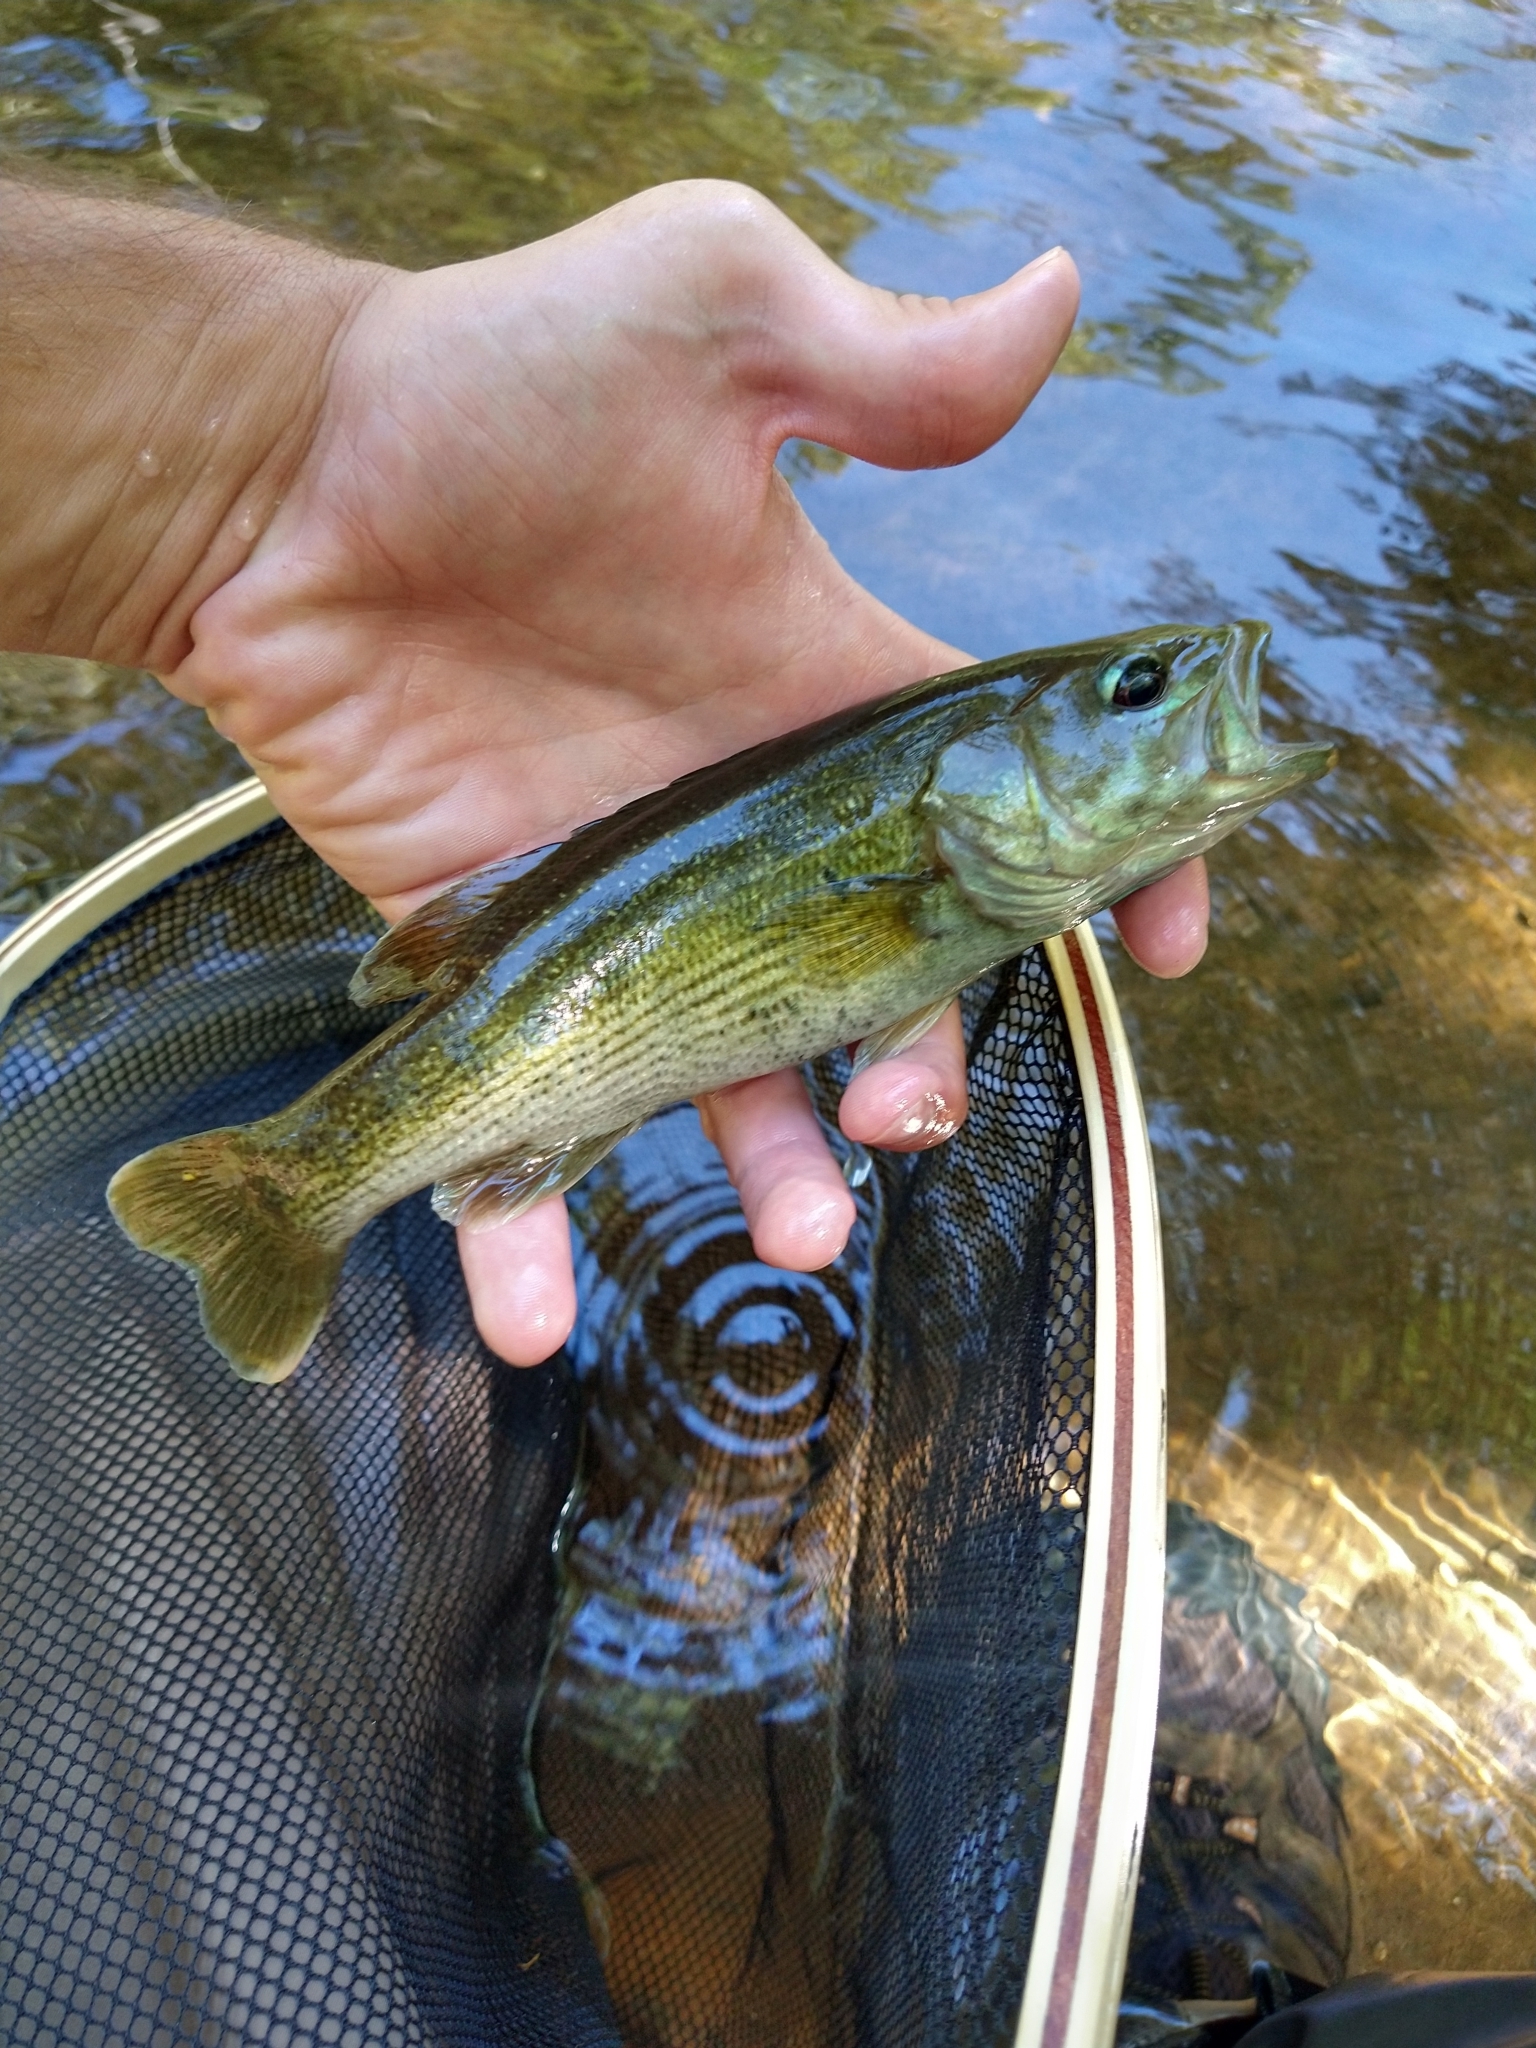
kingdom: Animalia
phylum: Chordata
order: Perciformes
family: Centrarchidae
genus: Micropterus
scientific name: Micropterus warriorensis
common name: Warrior bass
